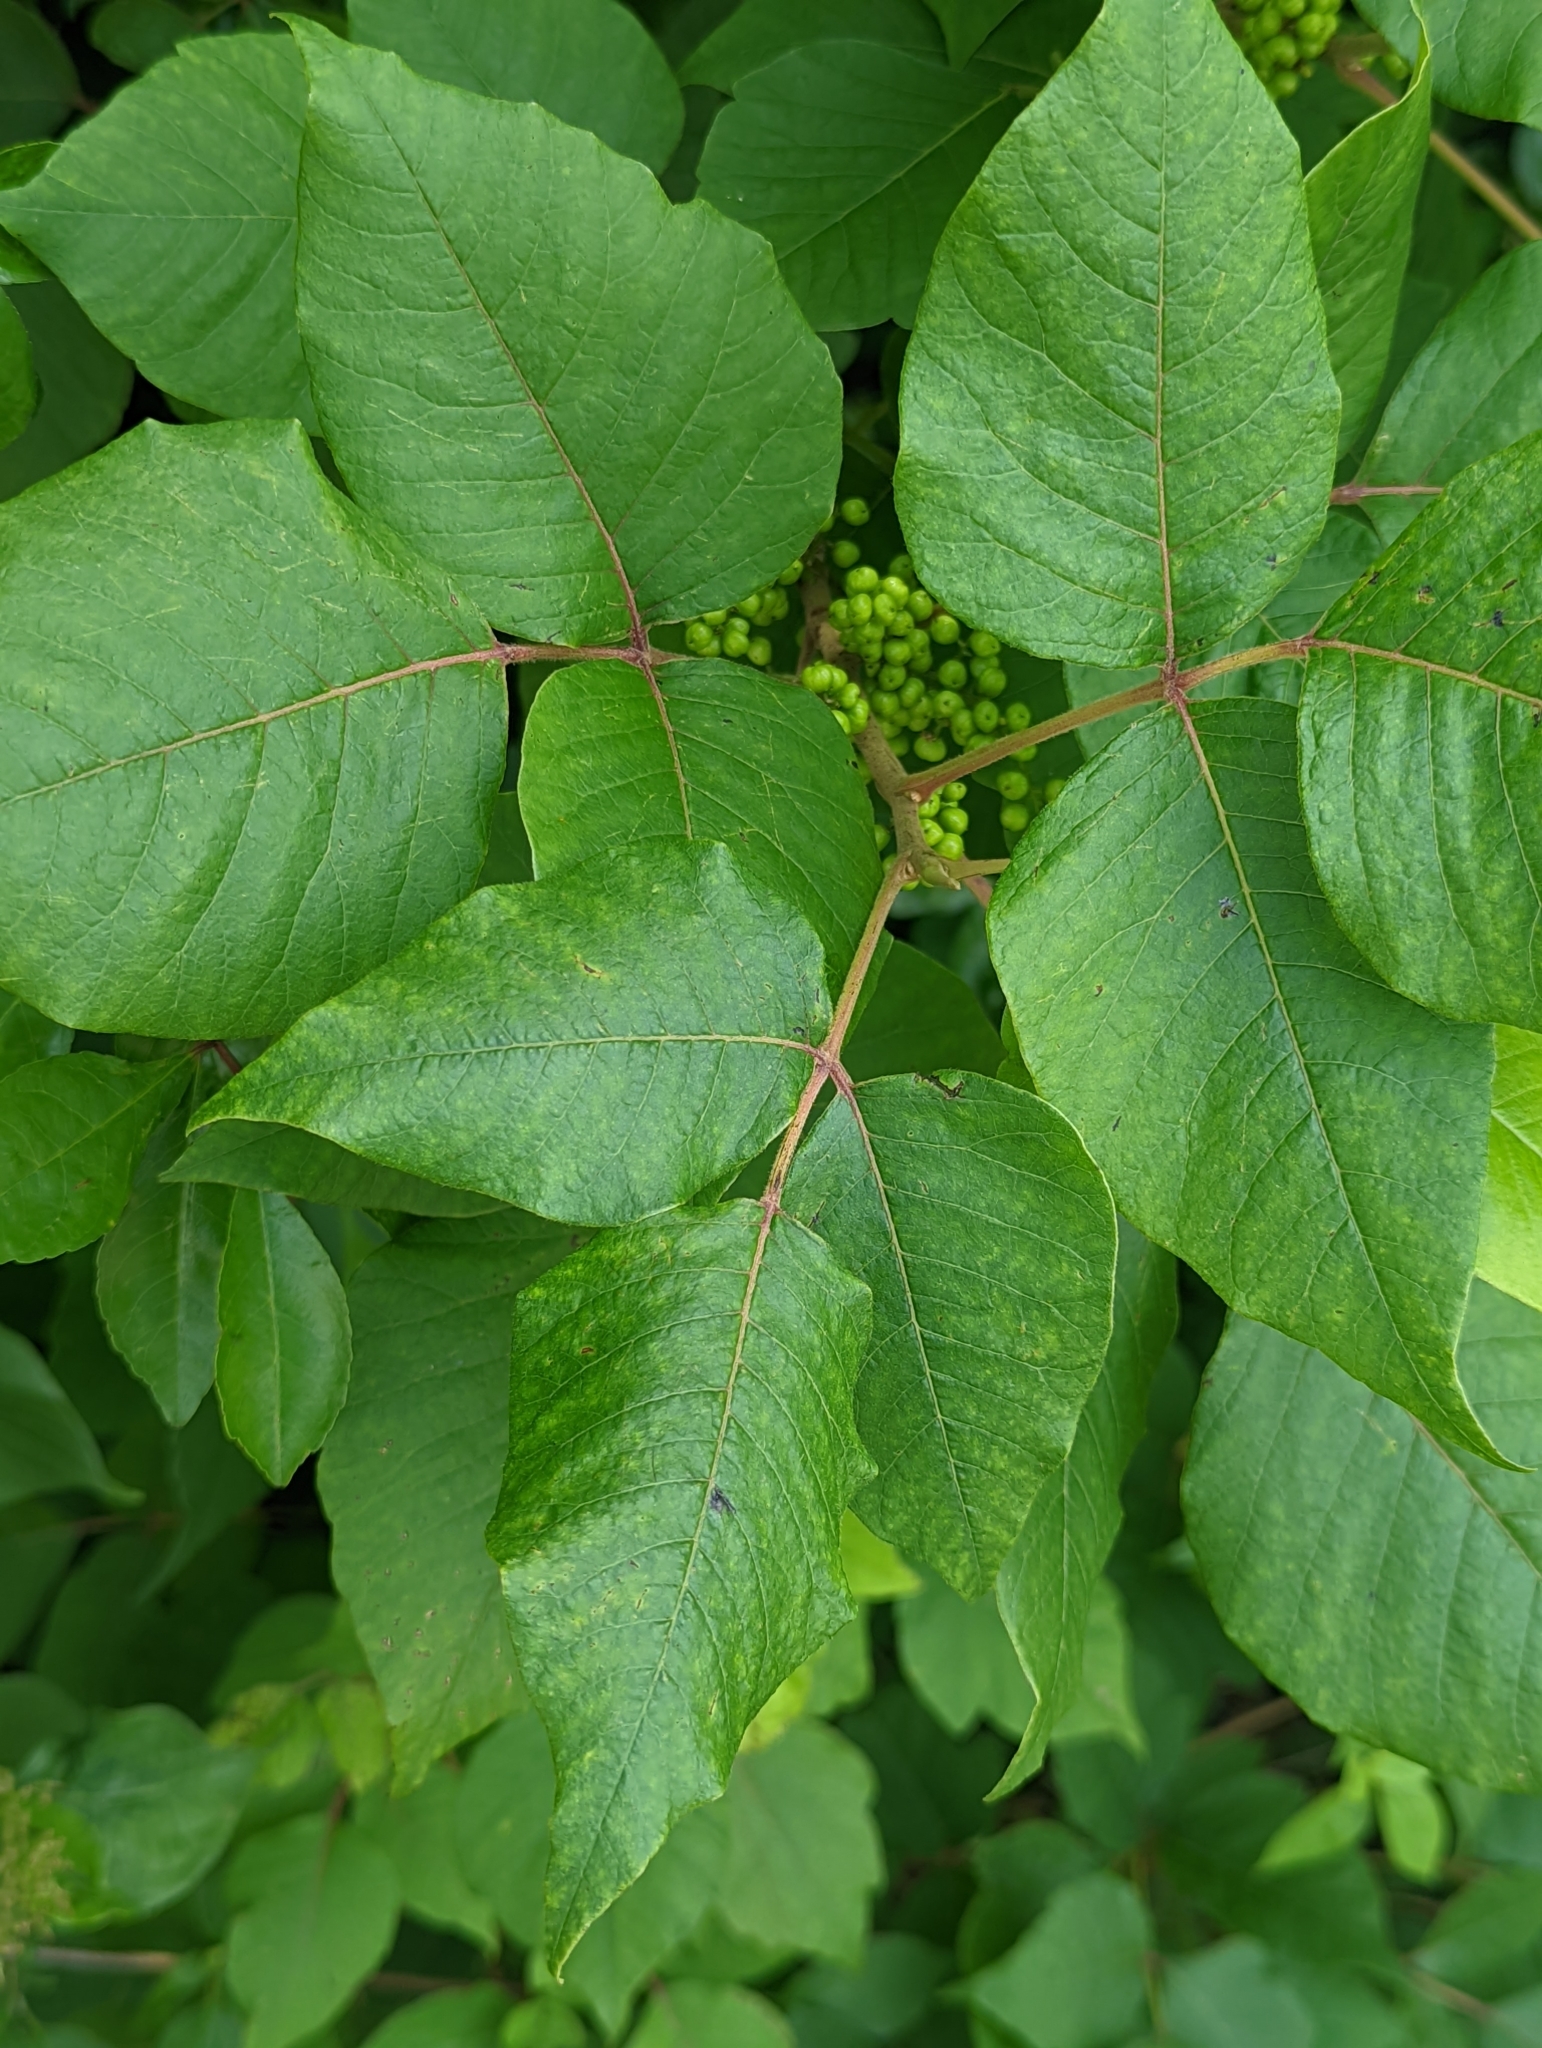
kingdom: Plantae
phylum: Tracheophyta
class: Magnoliopsida
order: Sapindales
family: Anacardiaceae
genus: Toxicodendron
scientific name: Toxicodendron radicans
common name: Poison ivy
